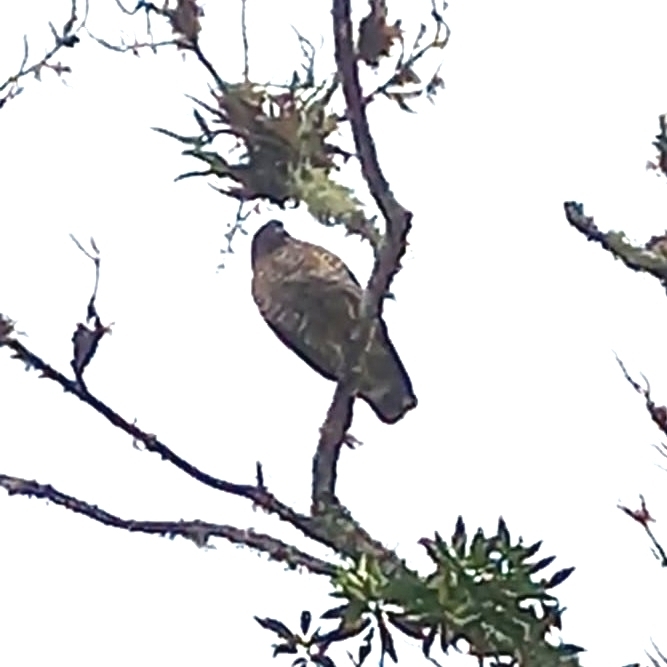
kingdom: Animalia
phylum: Chordata
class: Aves
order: Accipitriformes
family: Accipitridae
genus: Buteo
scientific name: Buteo platypterus
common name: Broad-winged hawk
